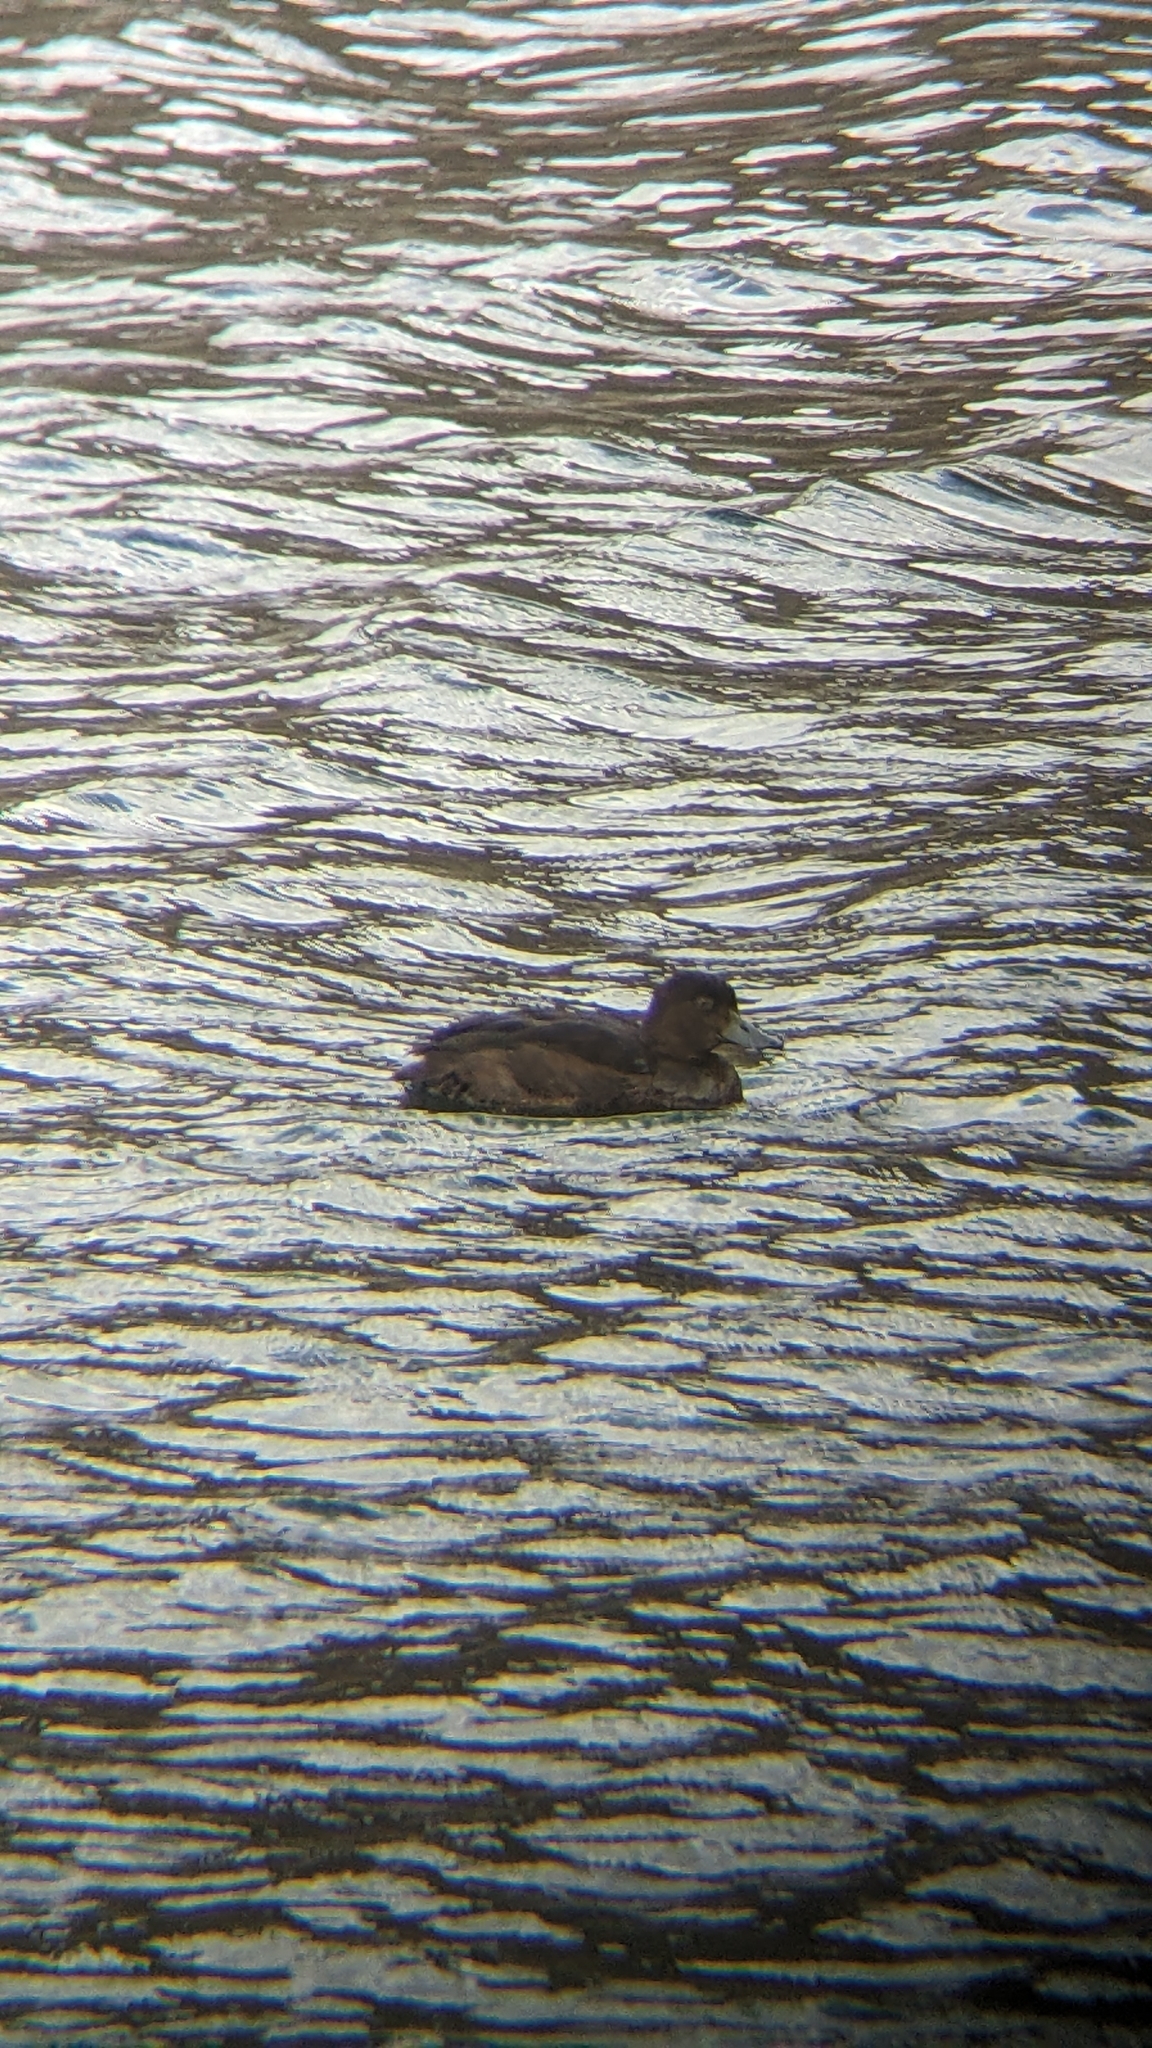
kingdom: Animalia
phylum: Chordata
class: Aves
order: Anseriformes
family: Anatidae
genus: Aythya
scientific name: Aythya novaeseelandiae
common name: New zealand scaup
